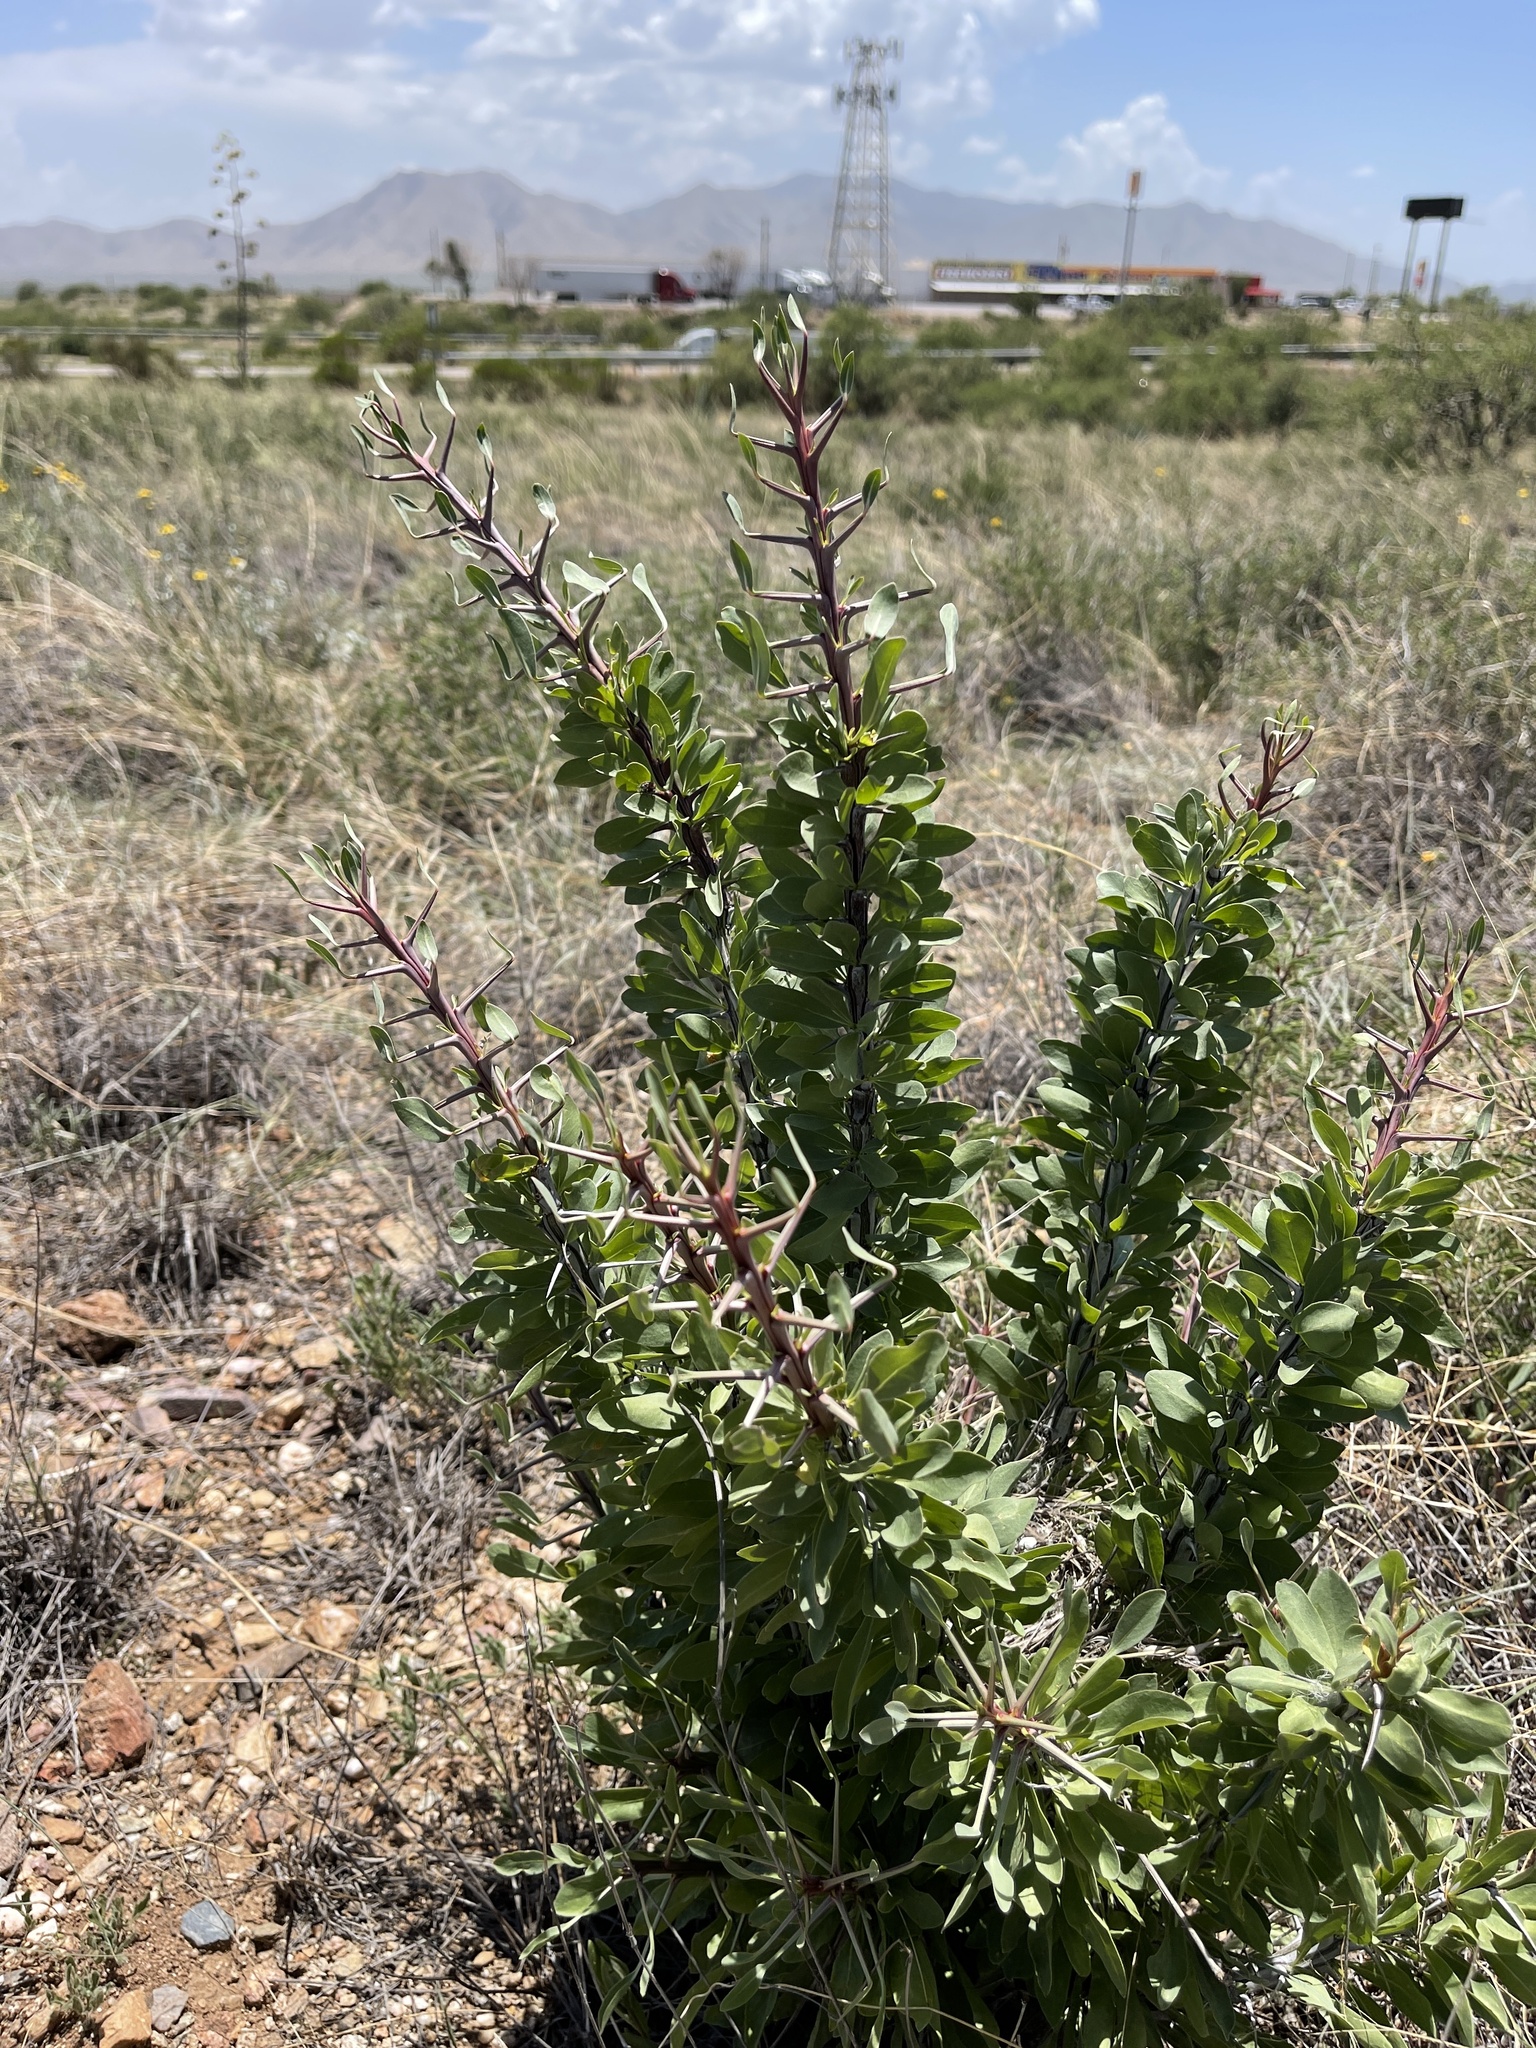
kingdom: Plantae
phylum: Tracheophyta
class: Magnoliopsida
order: Ericales
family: Fouquieriaceae
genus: Fouquieria
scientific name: Fouquieria splendens
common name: Vine-cactus
